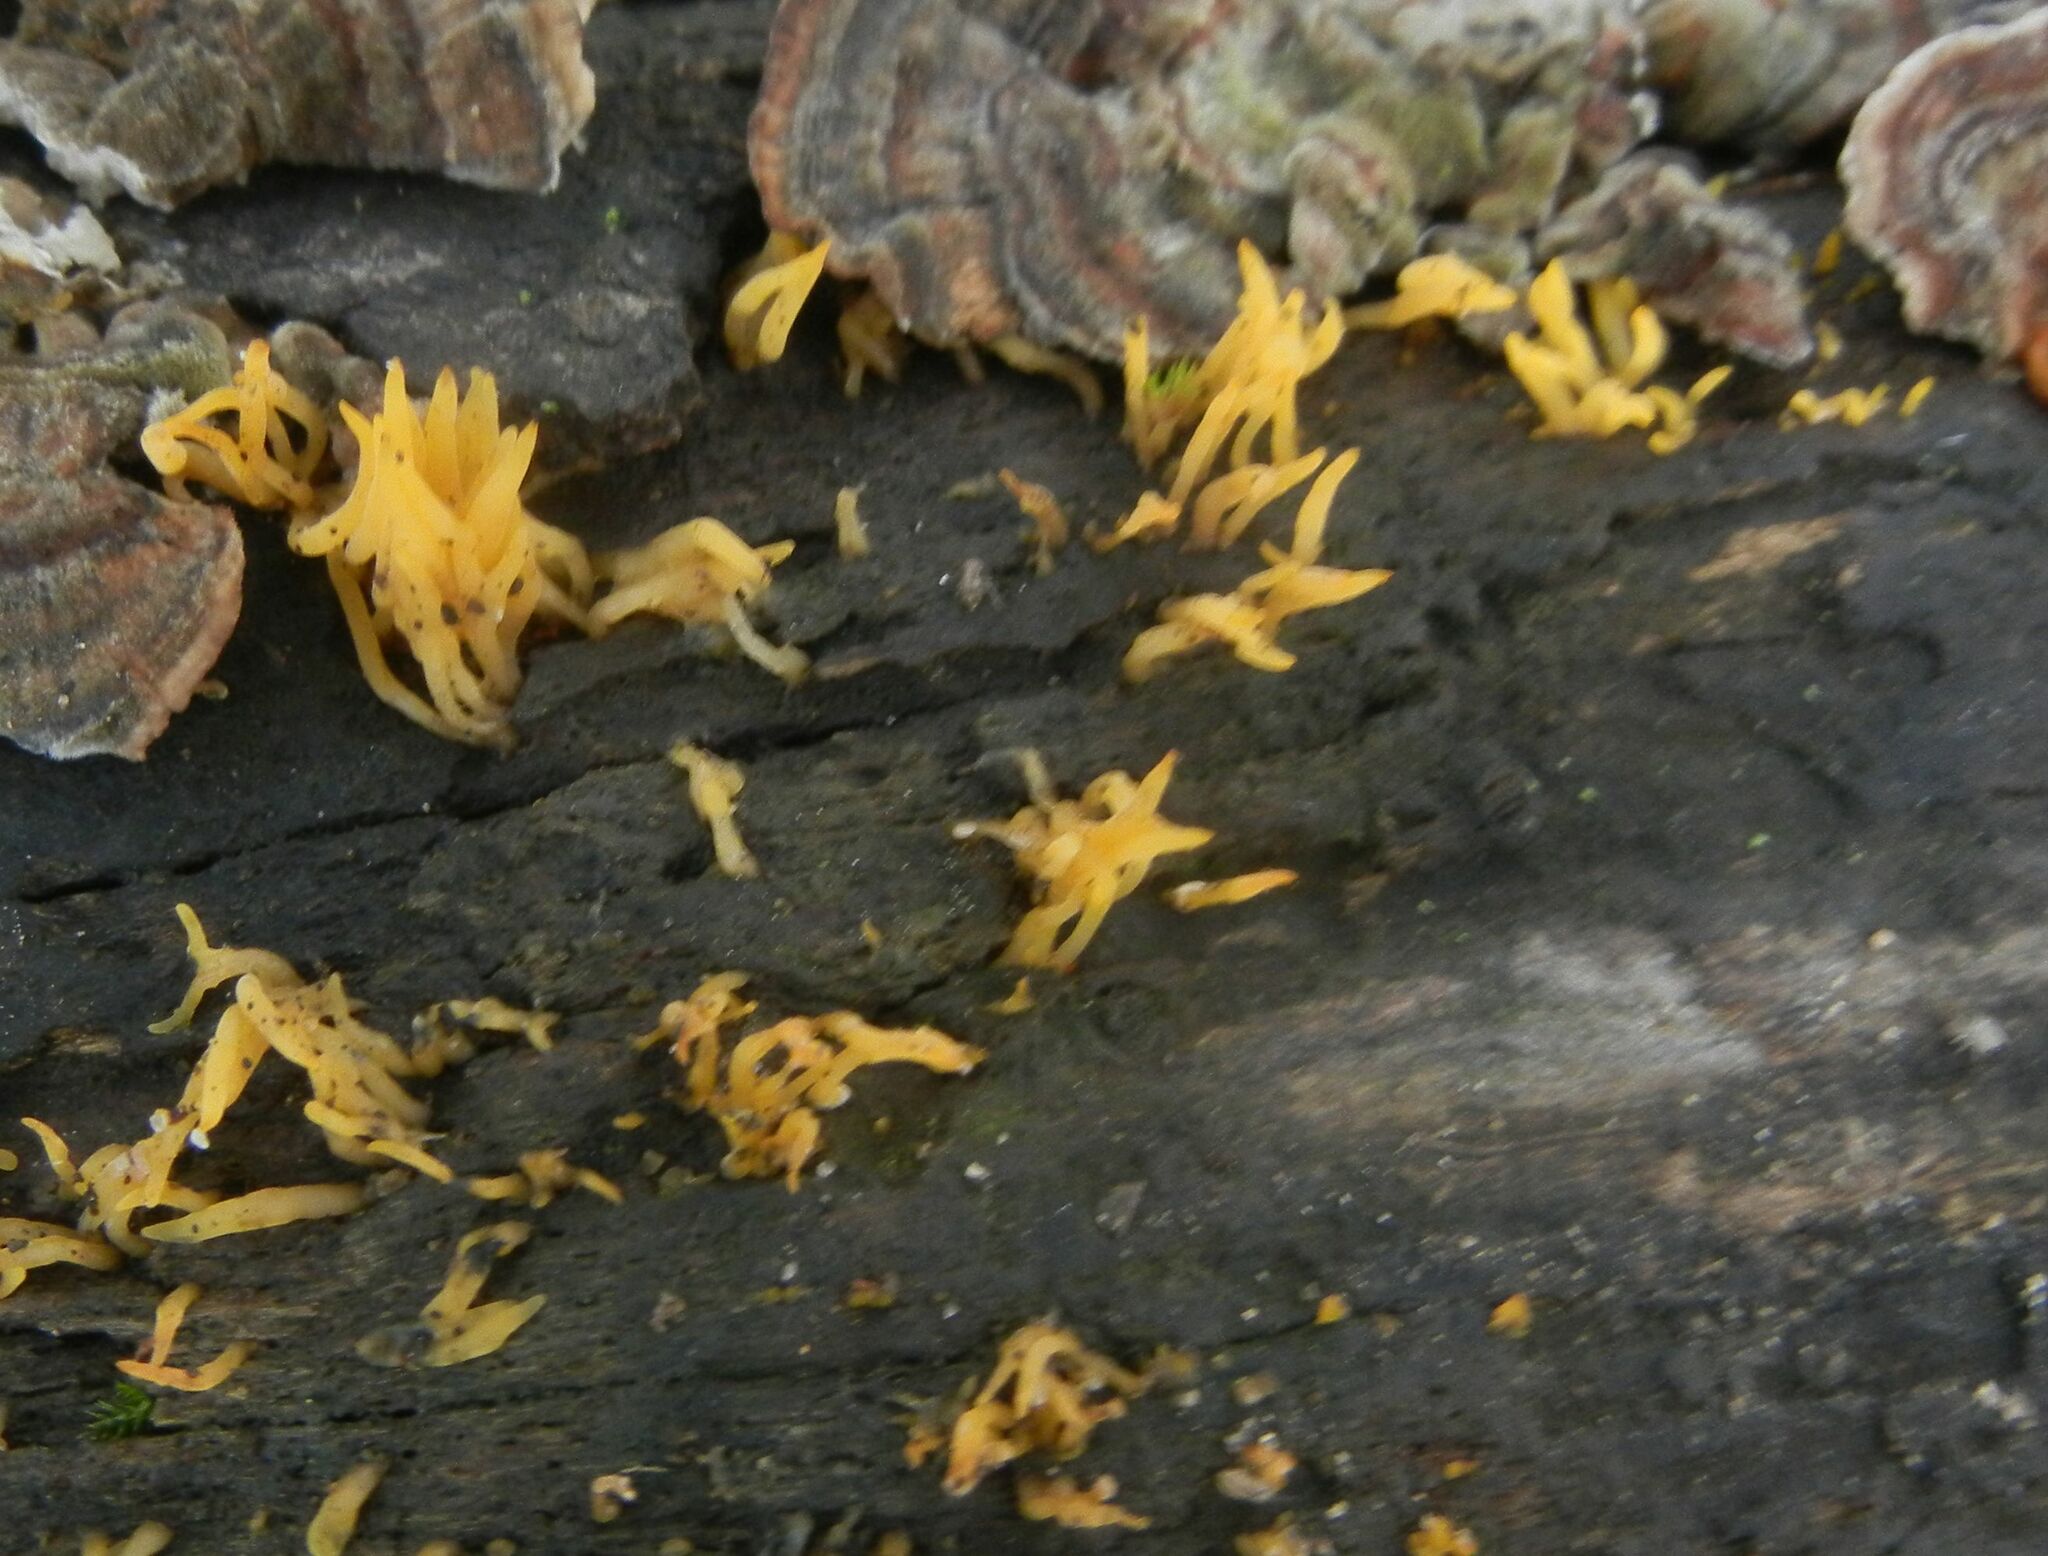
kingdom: Fungi
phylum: Basidiomycota
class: Dacrymycetes
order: Dacrymycetales
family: Dacrymycetaceae
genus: Calocera
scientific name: Calocera cornea
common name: Small stagshorn
